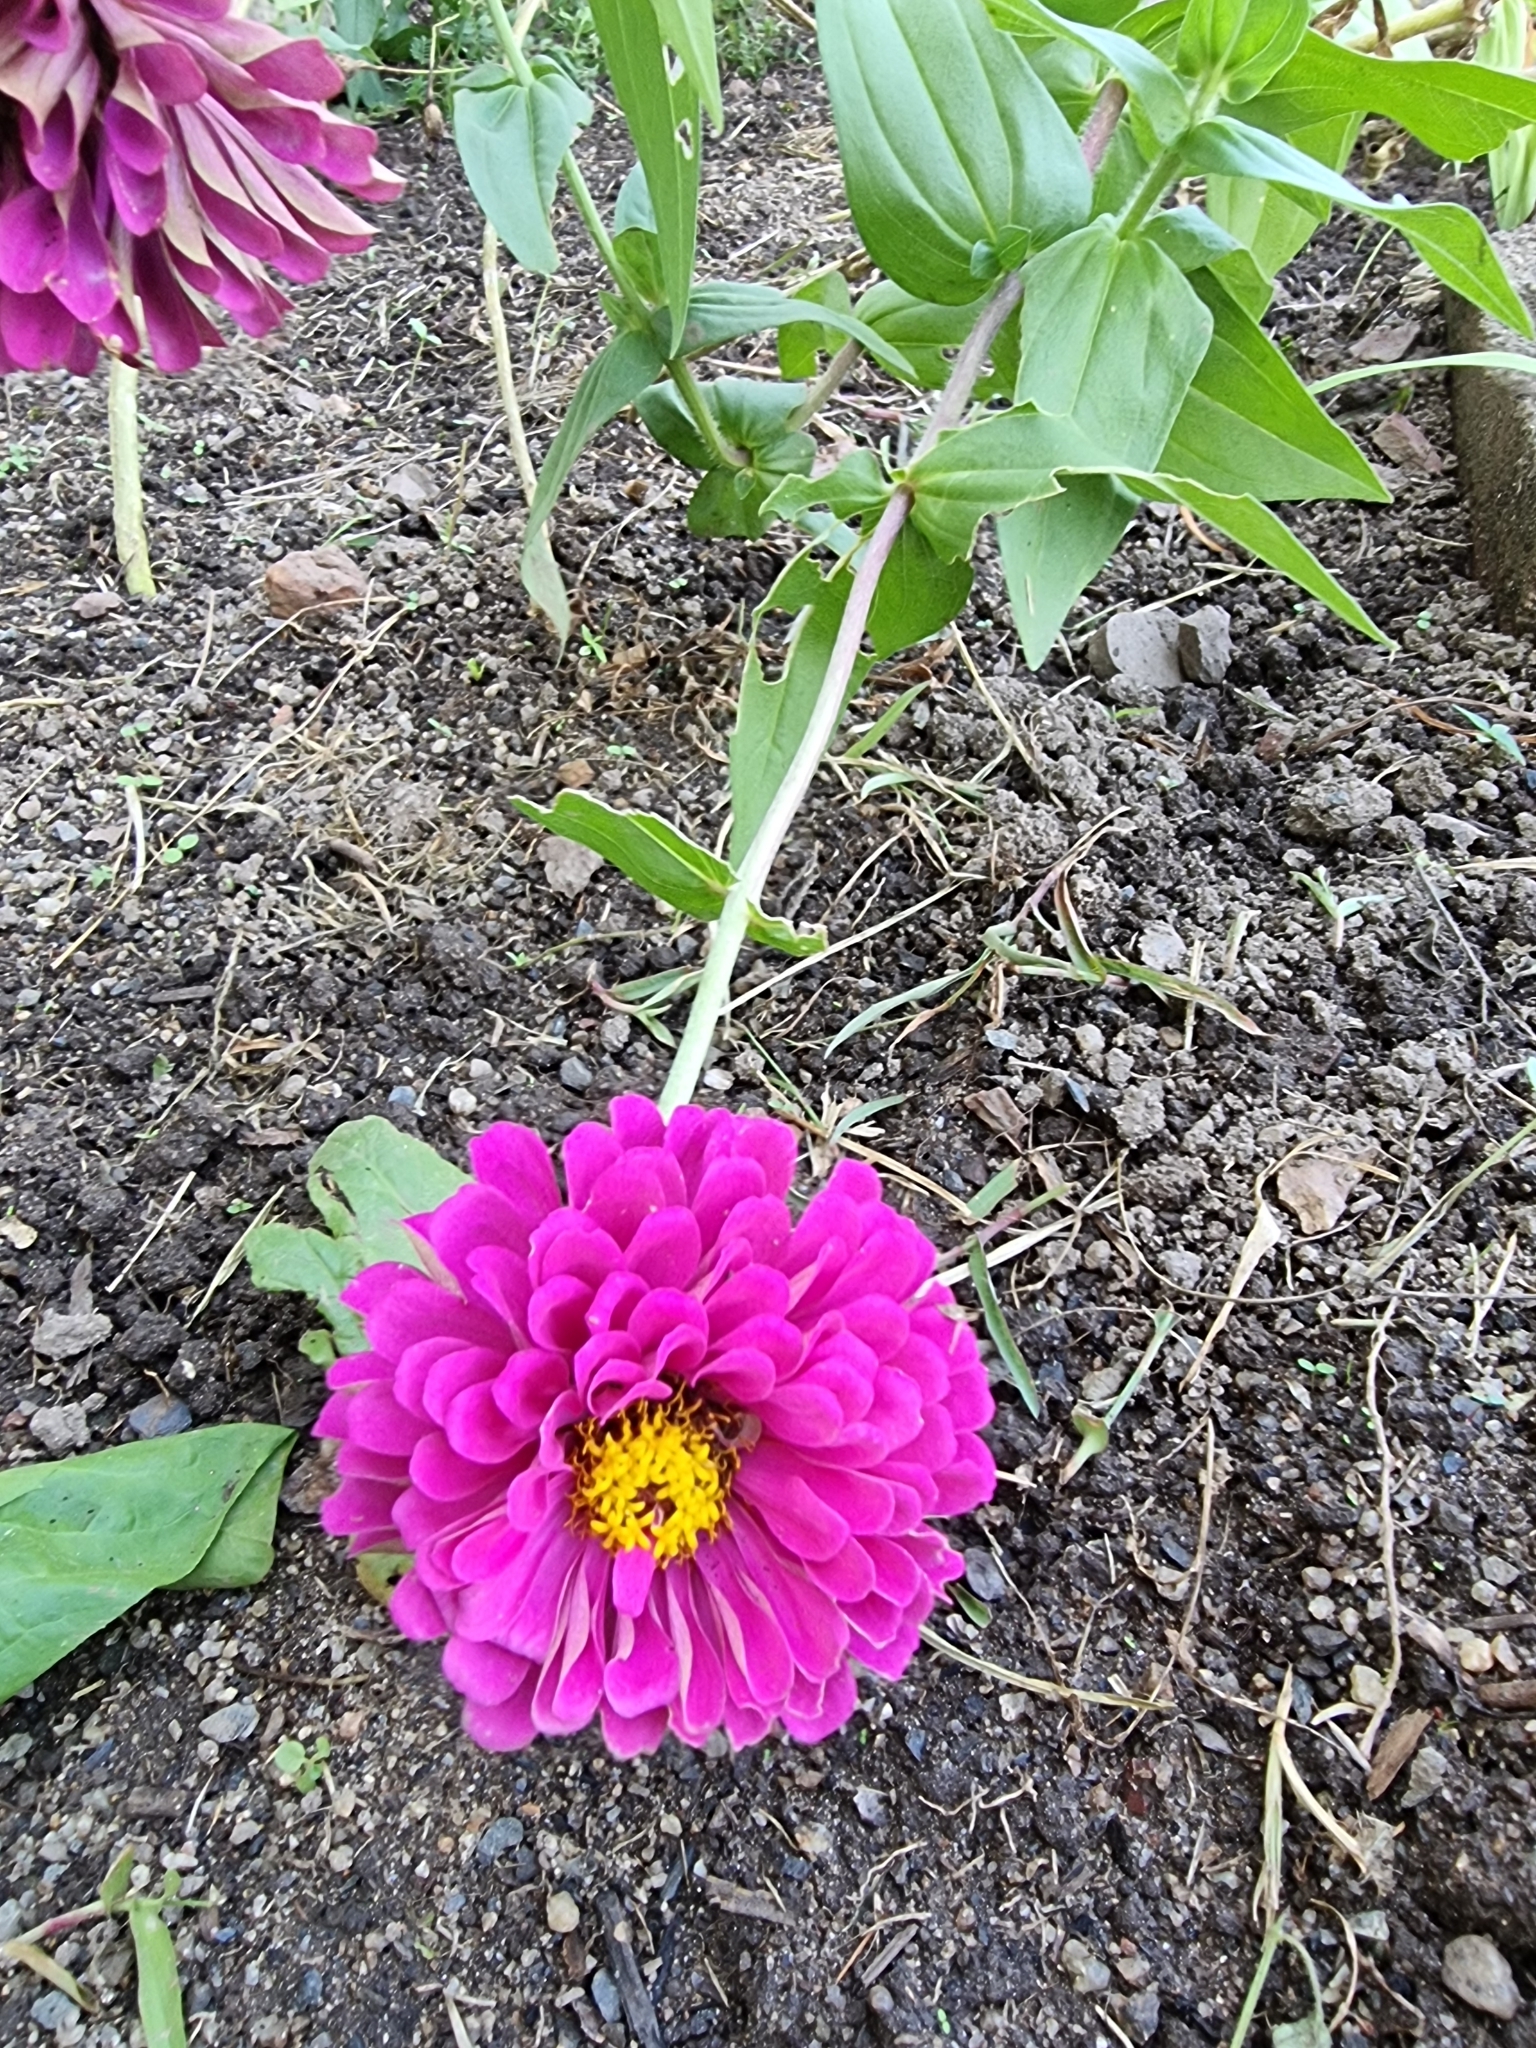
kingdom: Plantae
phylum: Tracheophyta
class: Magnoliopsida
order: Asterales
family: Asteraceae
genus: Zinnia
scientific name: Zinnia elegans
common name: Youth-and-age
